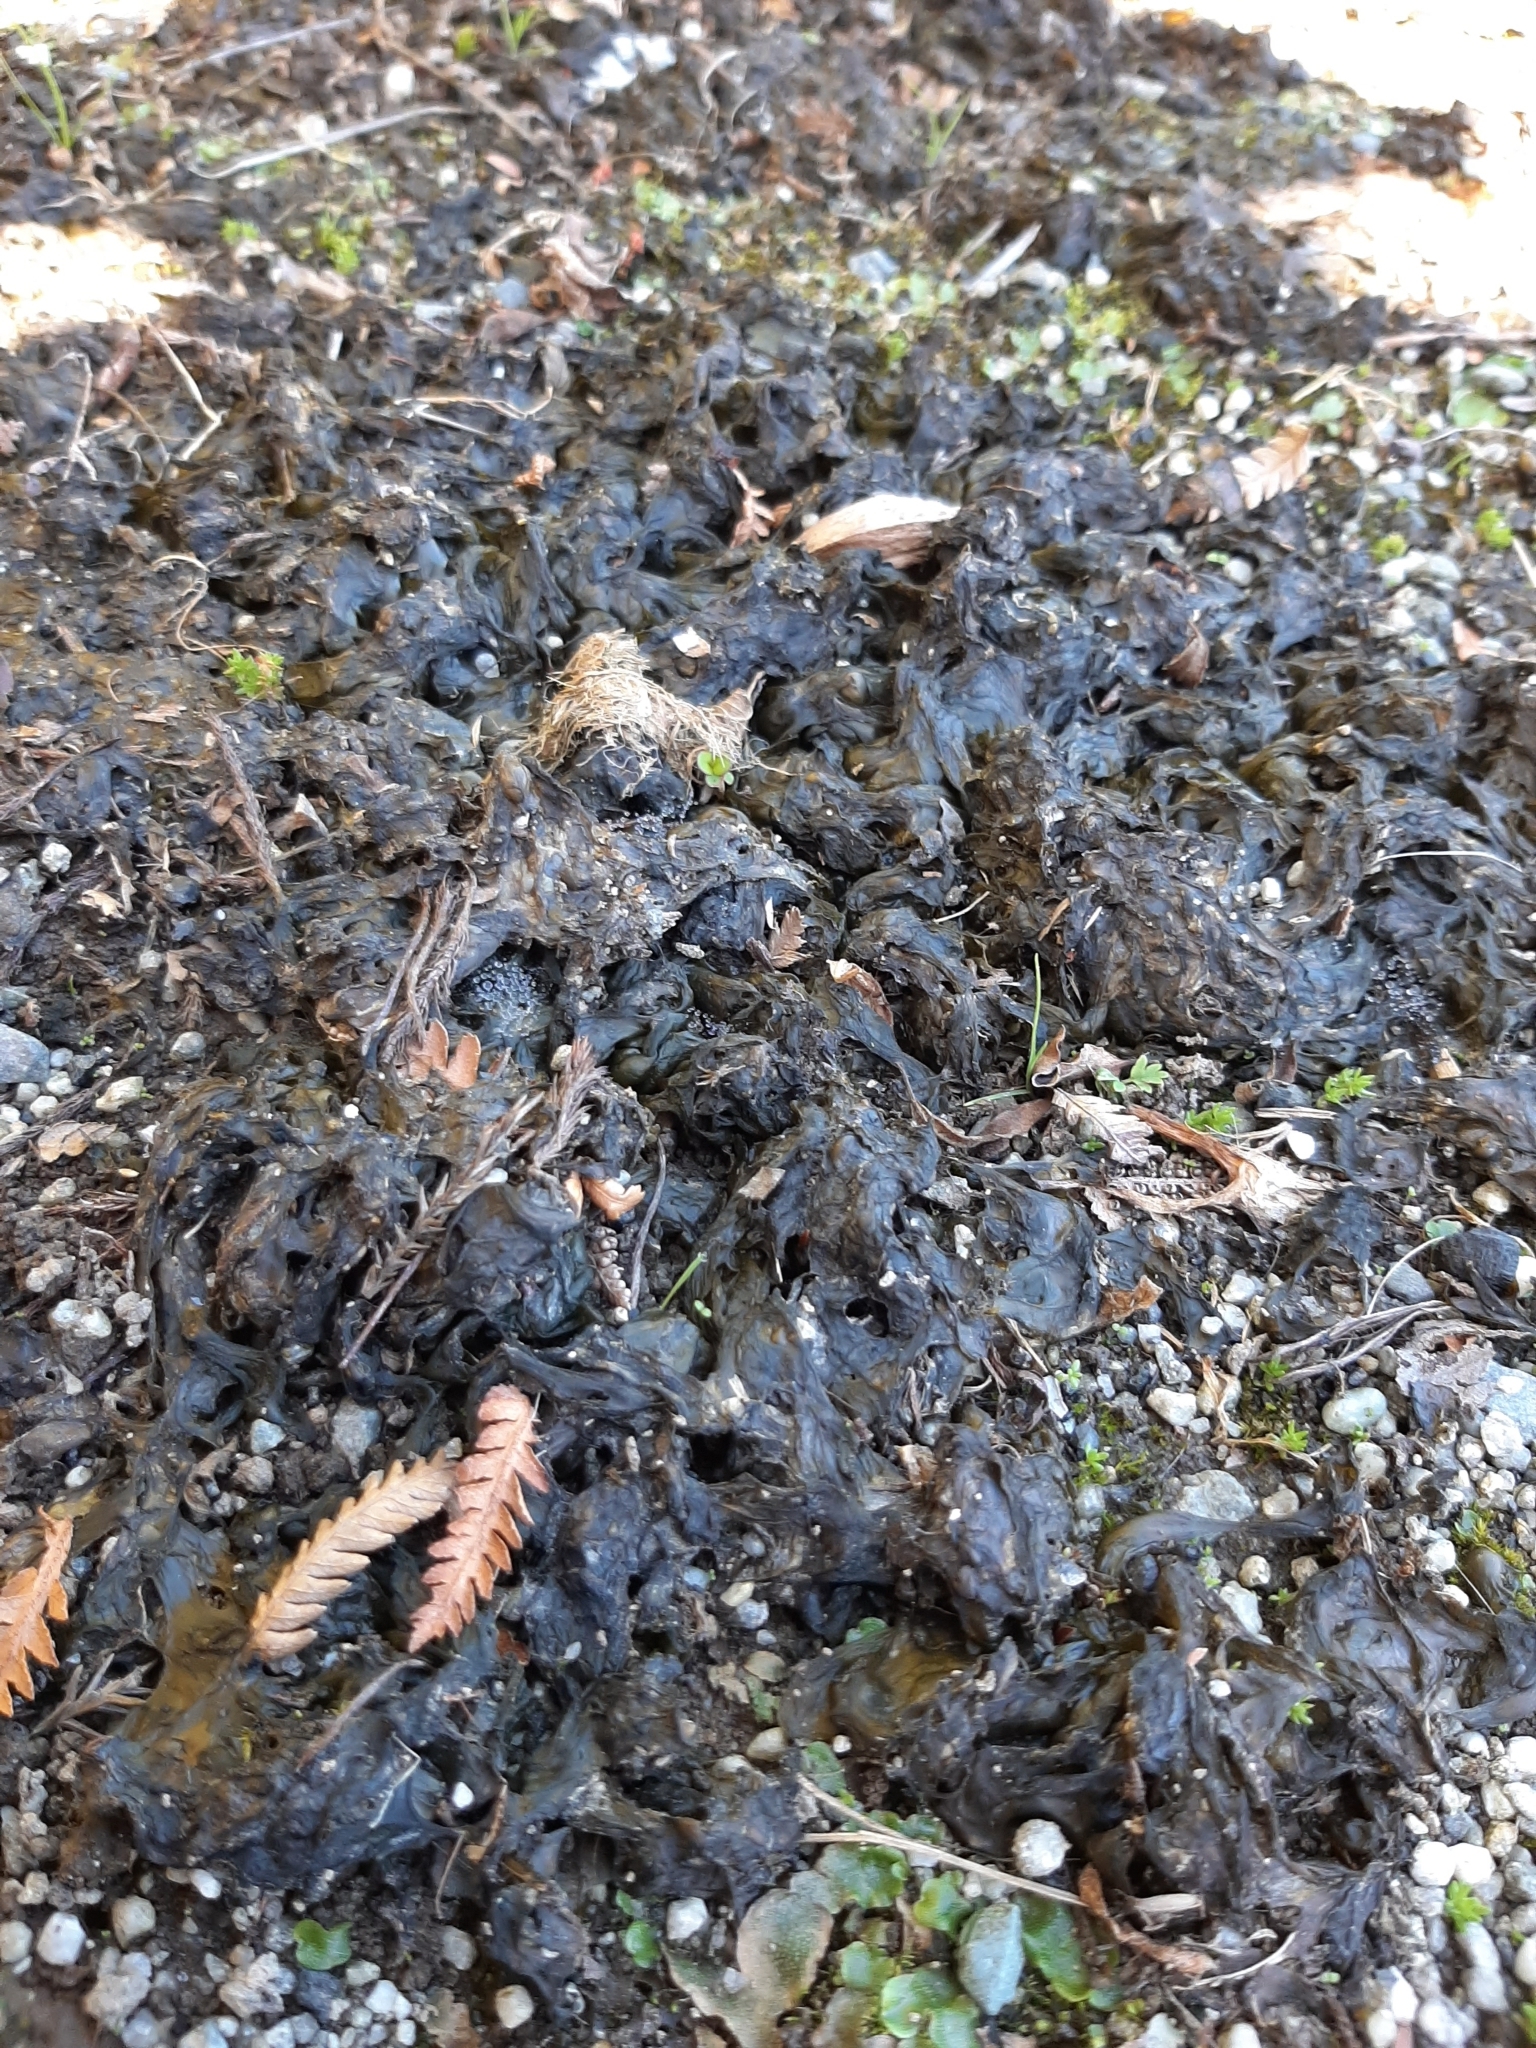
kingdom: Bacteria
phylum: Cyanobacteria
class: Cyanobacteriia
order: Cyanobacteriales
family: Nostocaceae
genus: Nostoc
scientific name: Nostoc commune
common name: Star jelly
